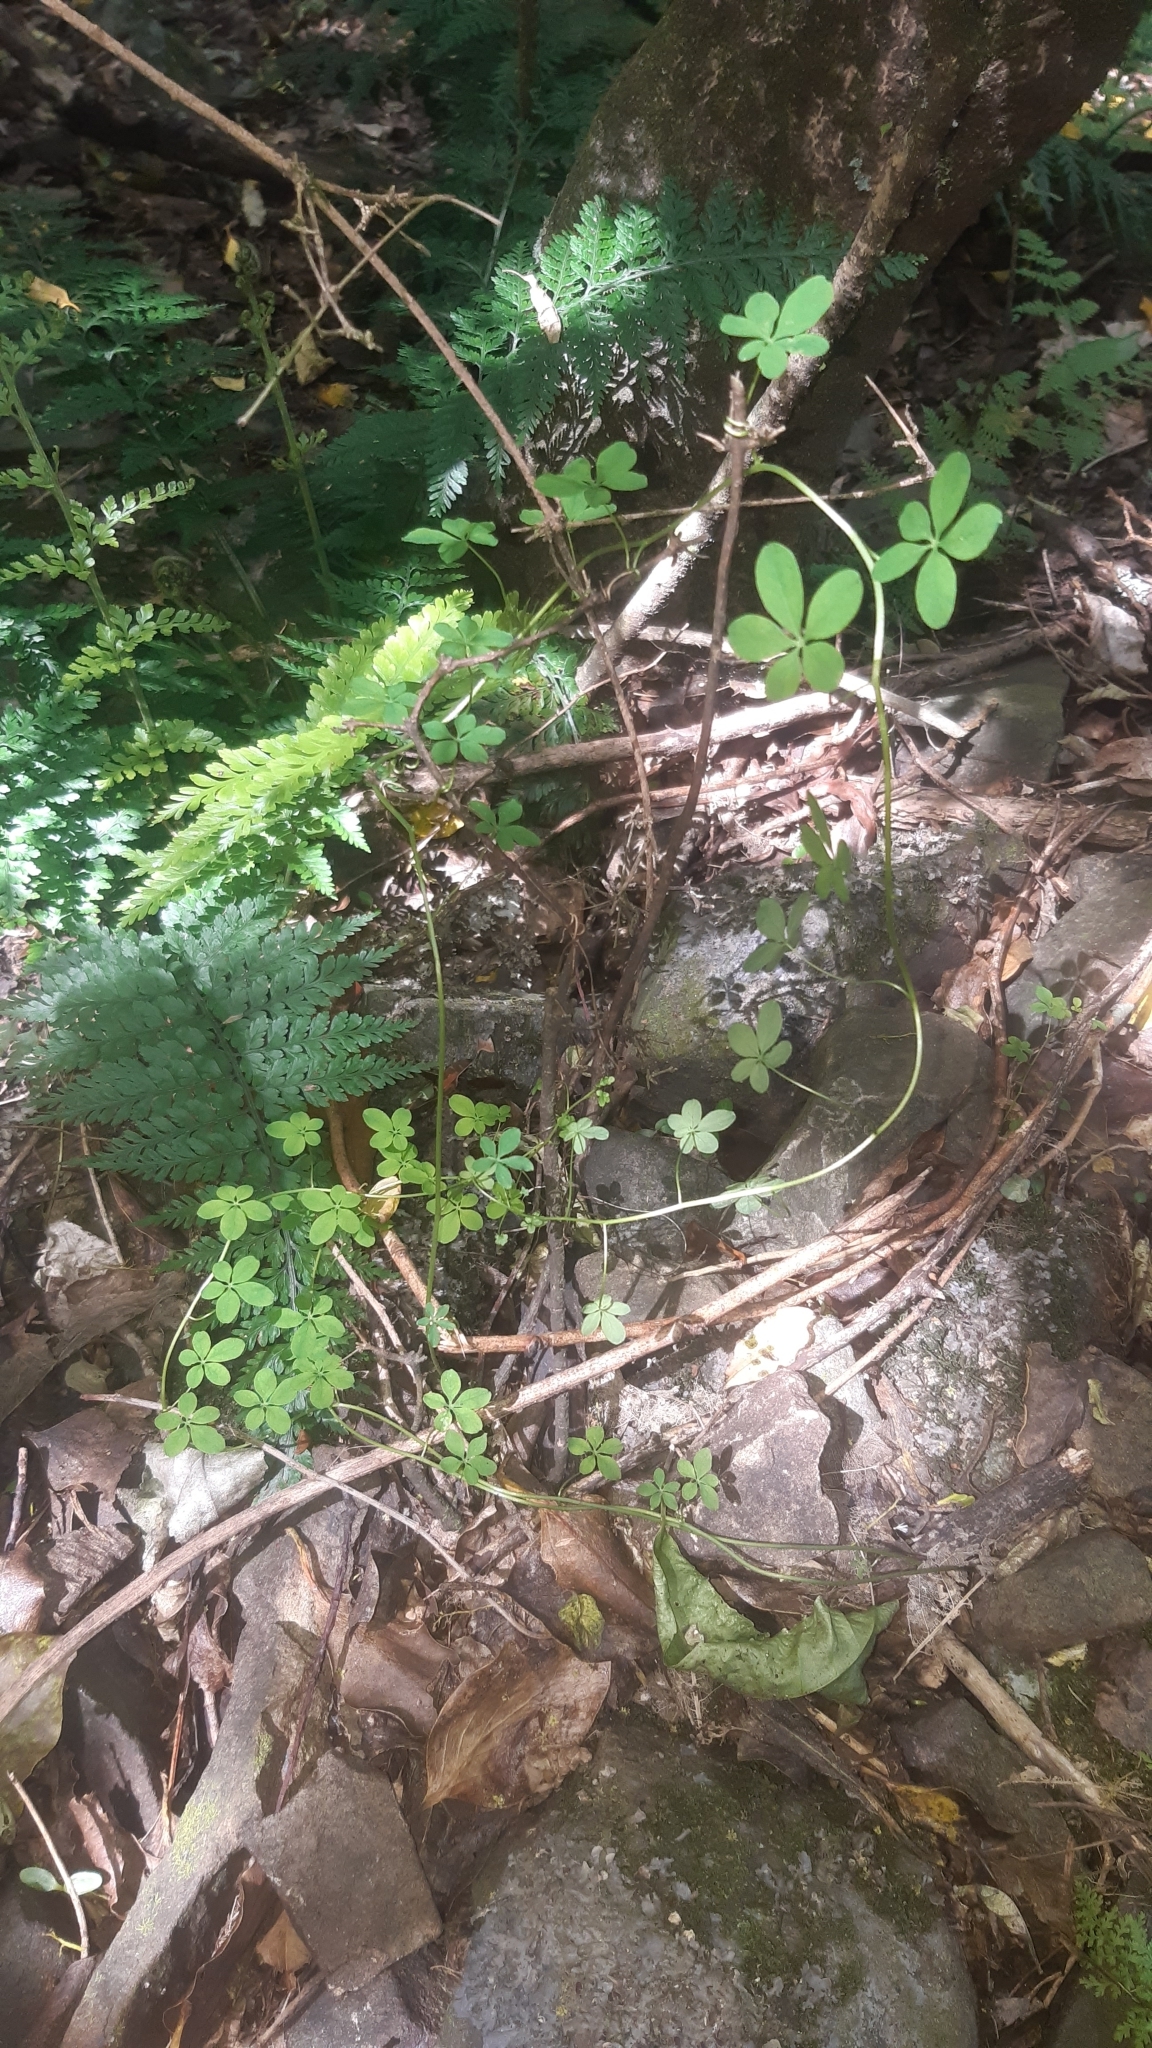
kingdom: Plantae
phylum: Tracheophyta
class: Magnoliopsida
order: Brassicales
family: Tropaeolaceae
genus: Tropaeolum
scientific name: Tropaeolum speciosum
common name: Flame nasturtium
